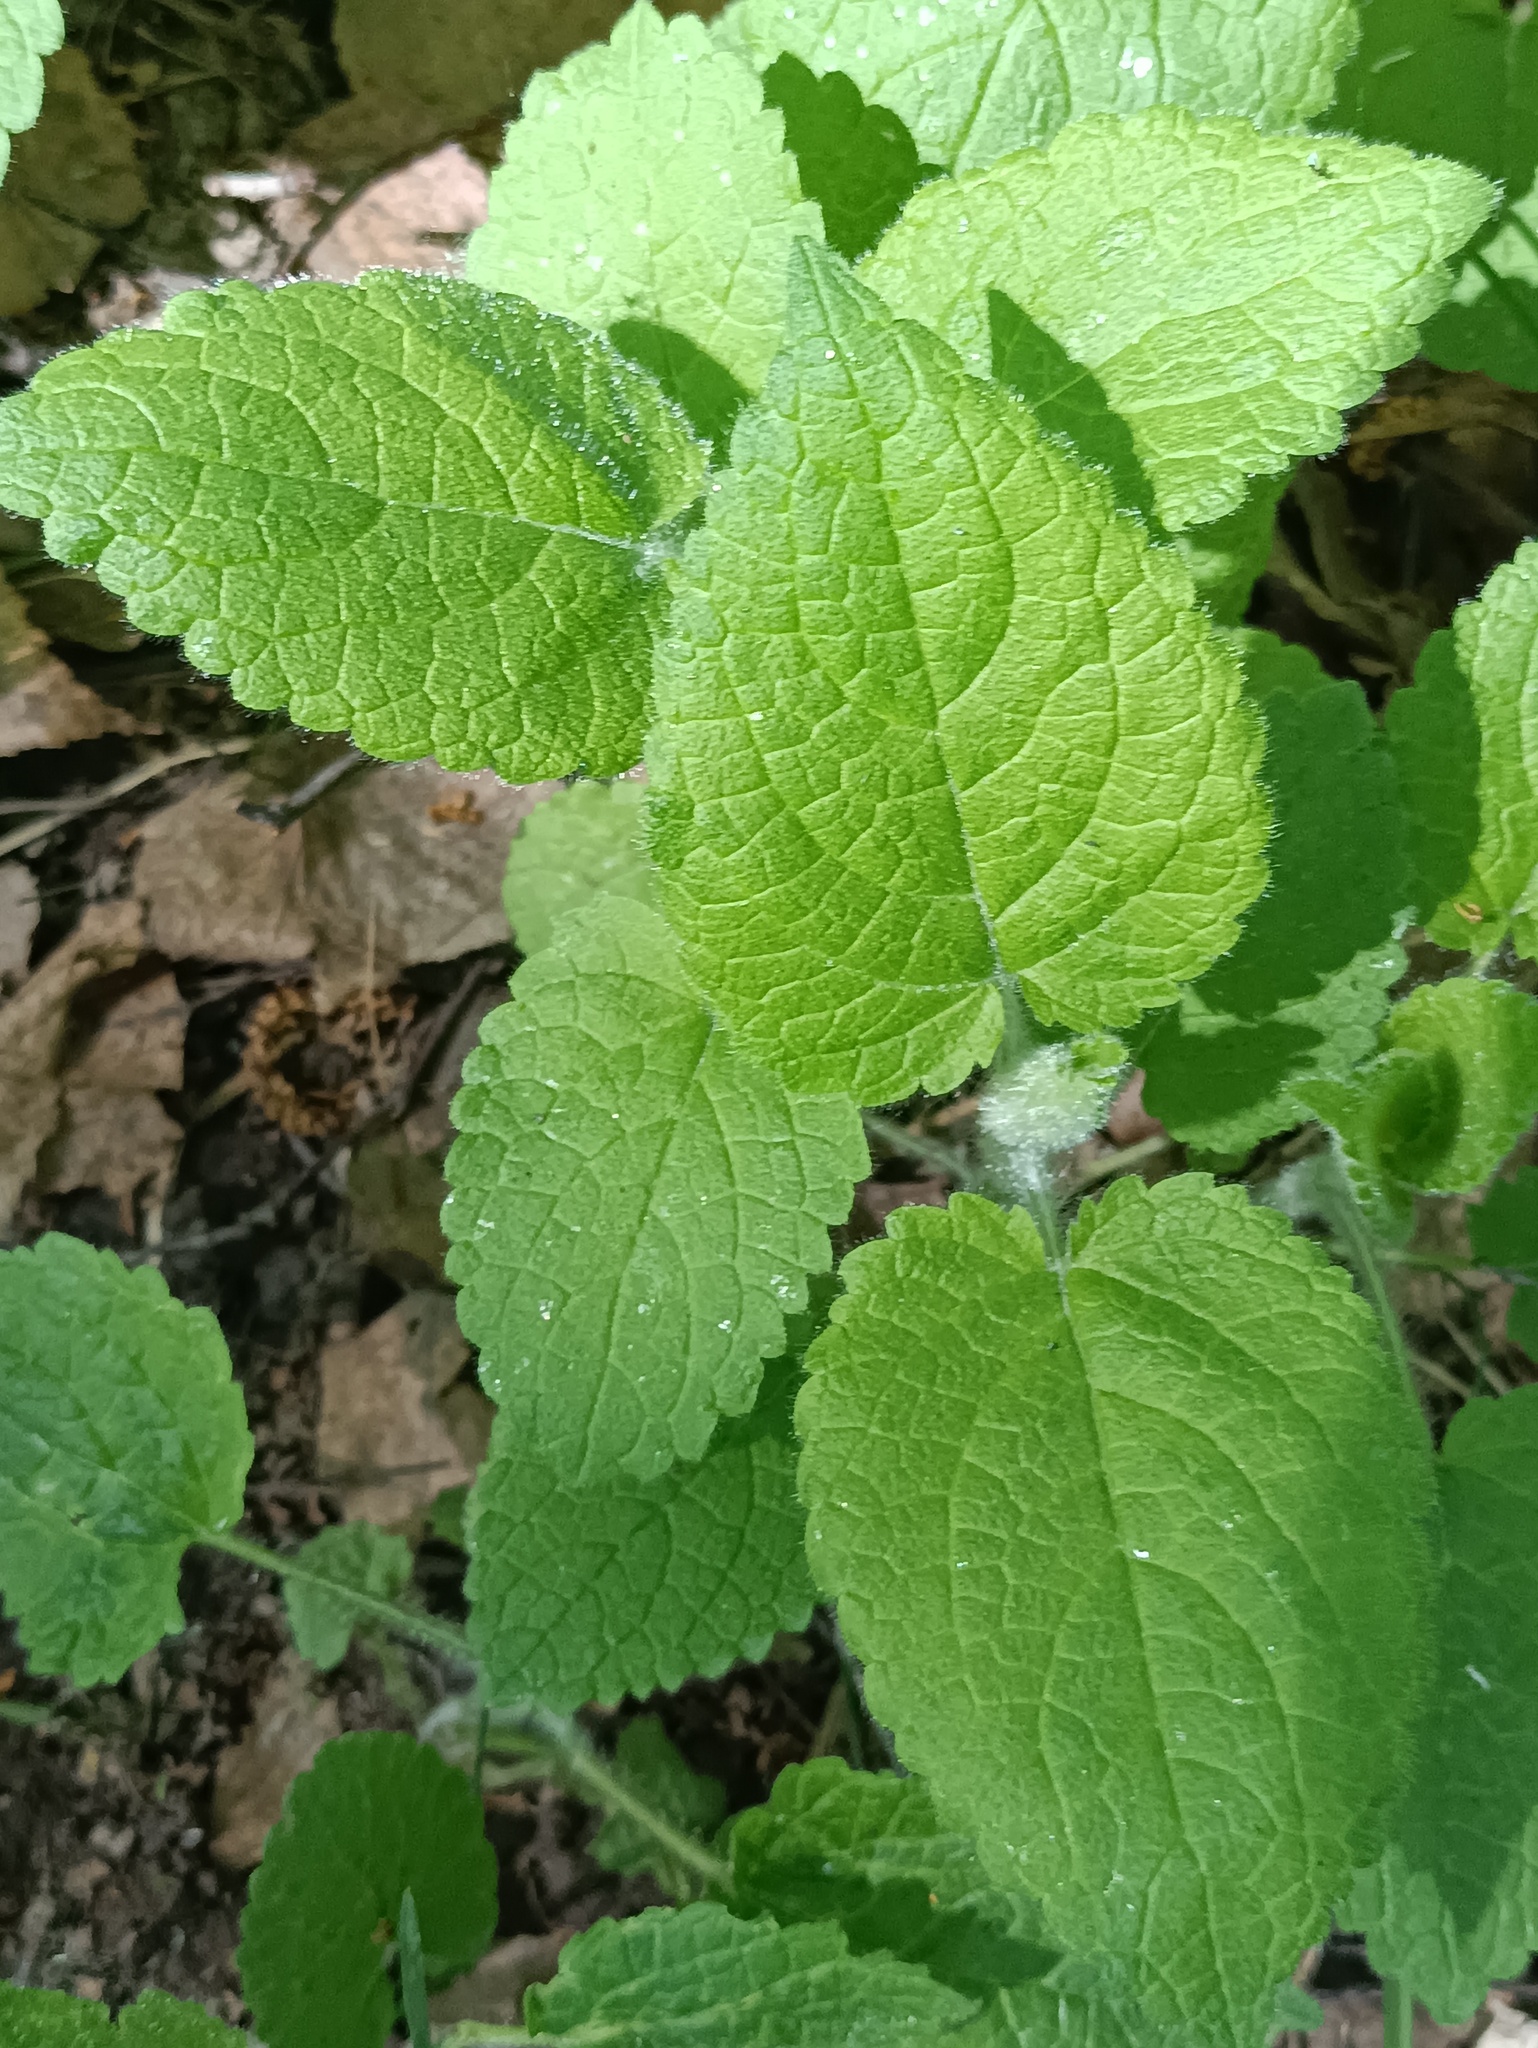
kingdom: Plantae
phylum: Tracheophyta
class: Magnoliopsida
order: Lamiales
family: Lamiaceae
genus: Stachys
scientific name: Stachys sylvatica
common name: Hedge woundwort
